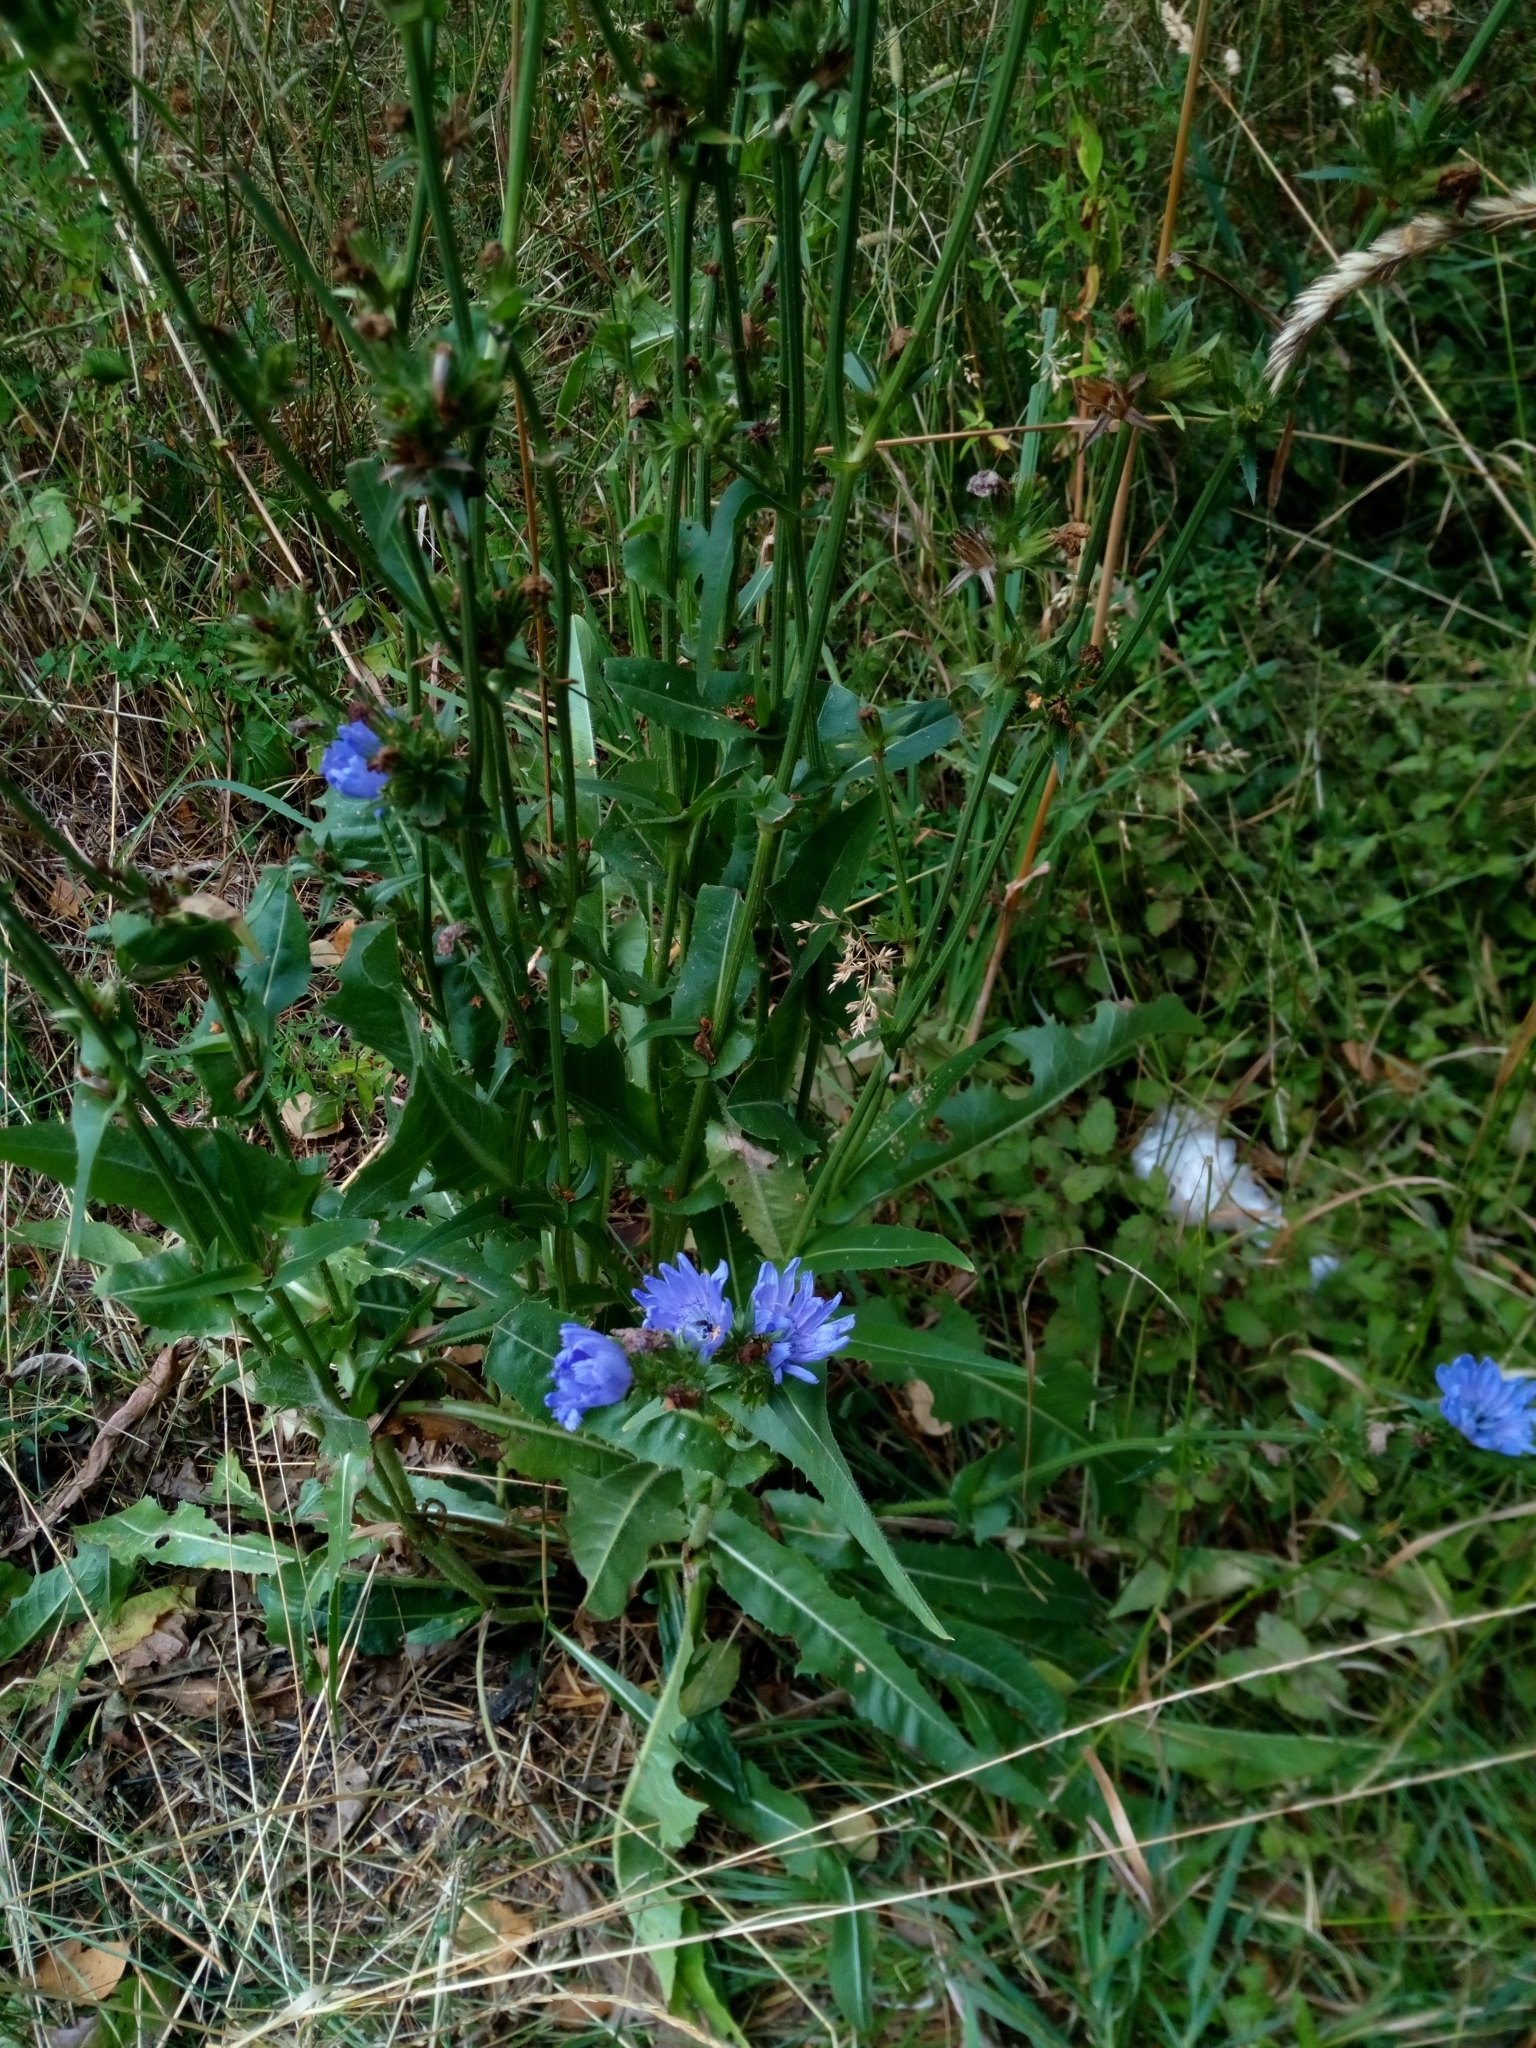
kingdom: Plantae
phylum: Tracheophyta
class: Magnoliopsida
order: Asterales
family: Asteraceae
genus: Cichorium
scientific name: Cichorium intybus
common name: Chicory
